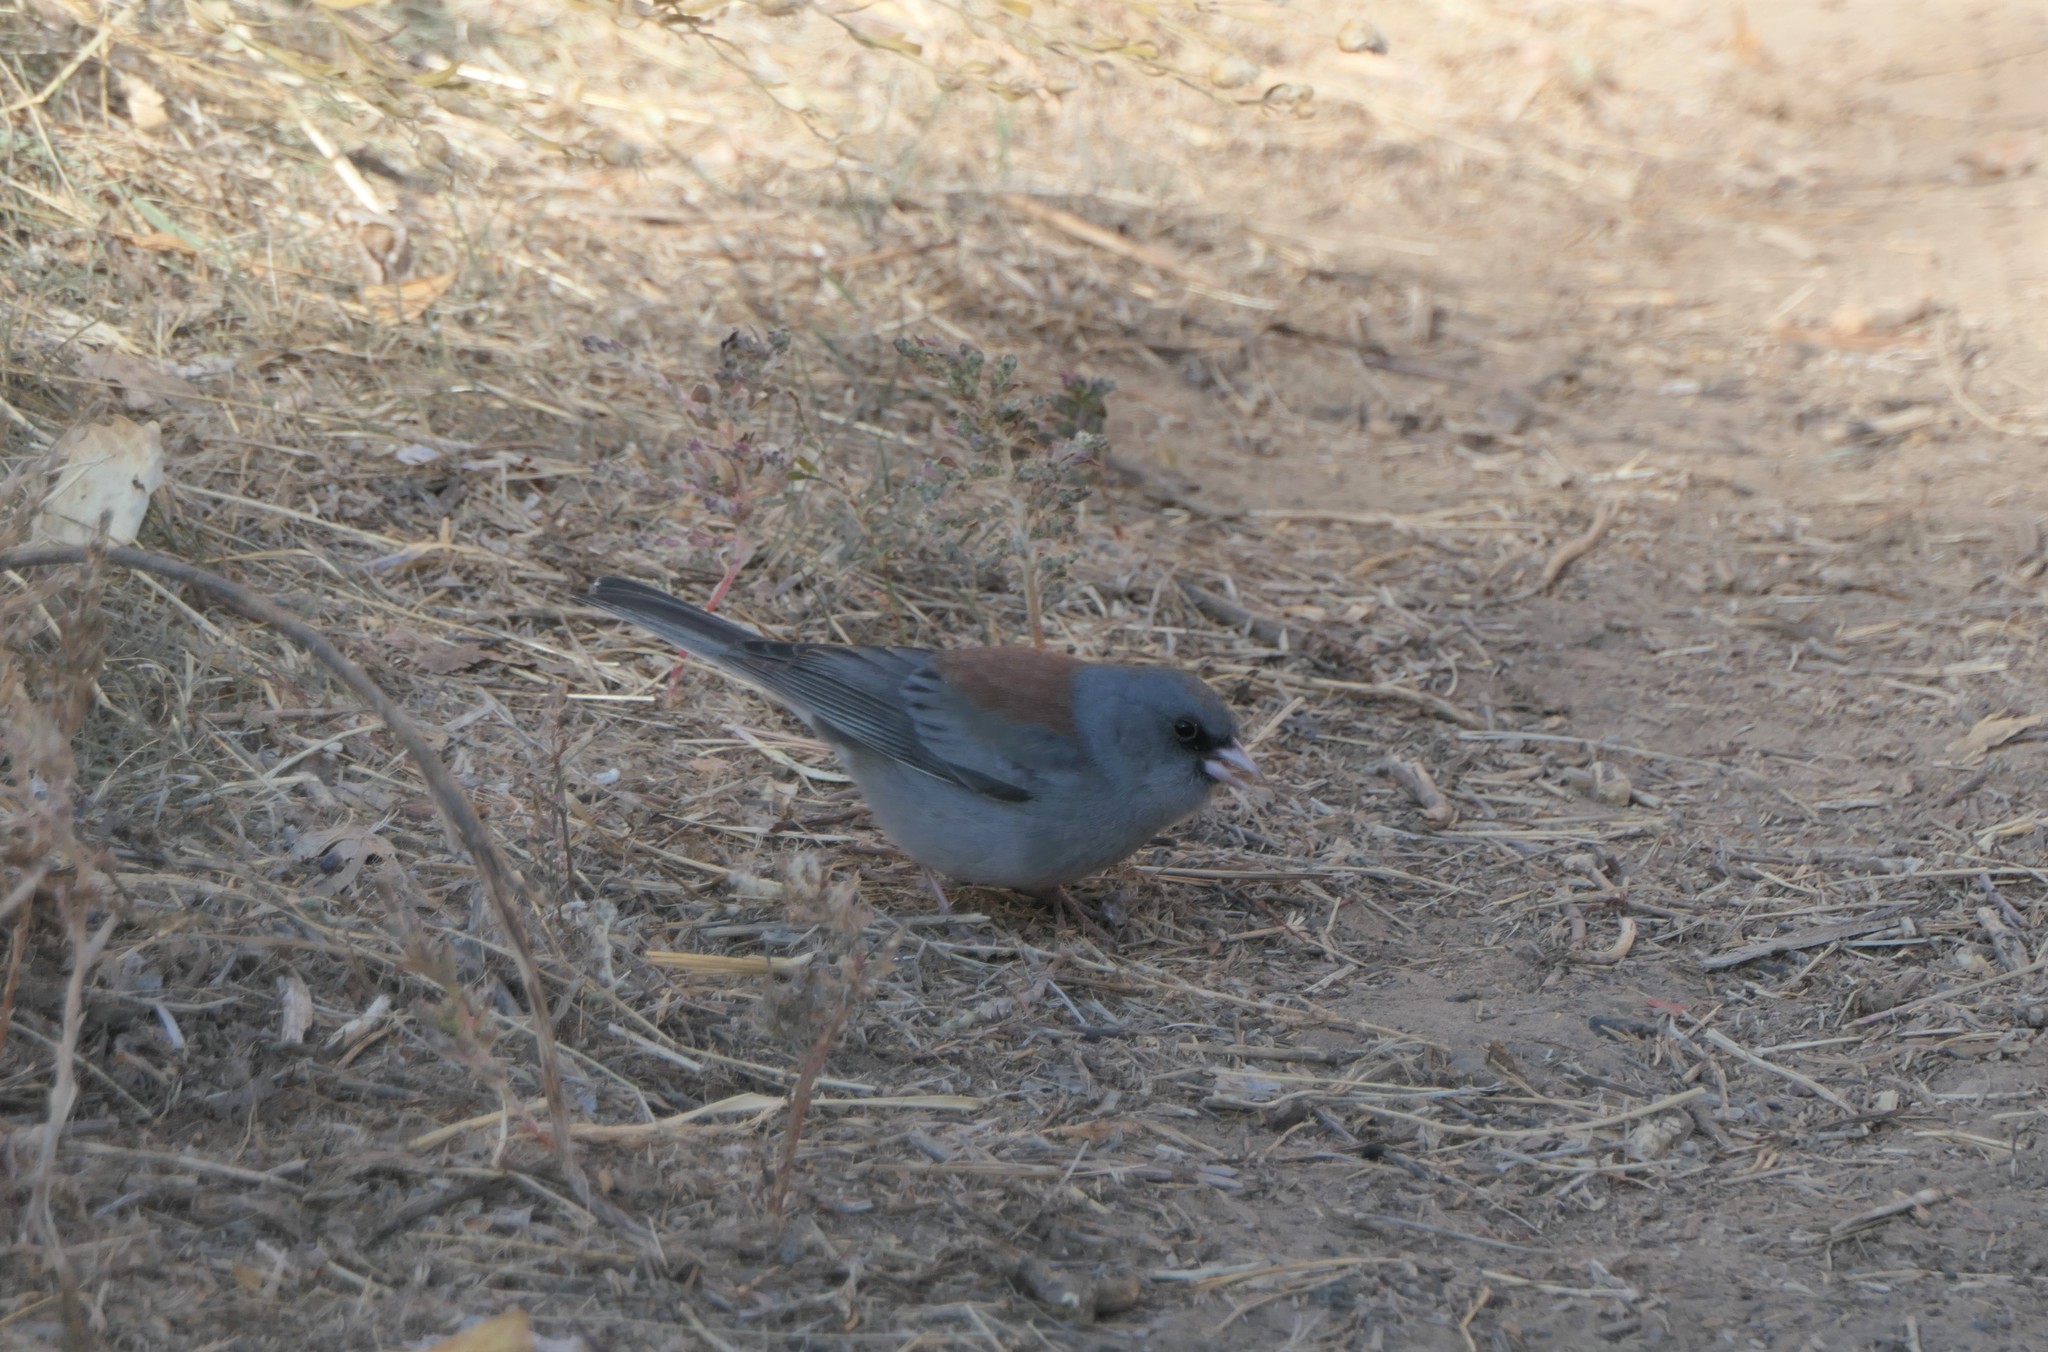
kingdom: Animalia
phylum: Chordata
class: Aves
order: Passeriformes
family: Passerellidae
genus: Junco
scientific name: Junco hyemalis
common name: Dark-eyed junco
